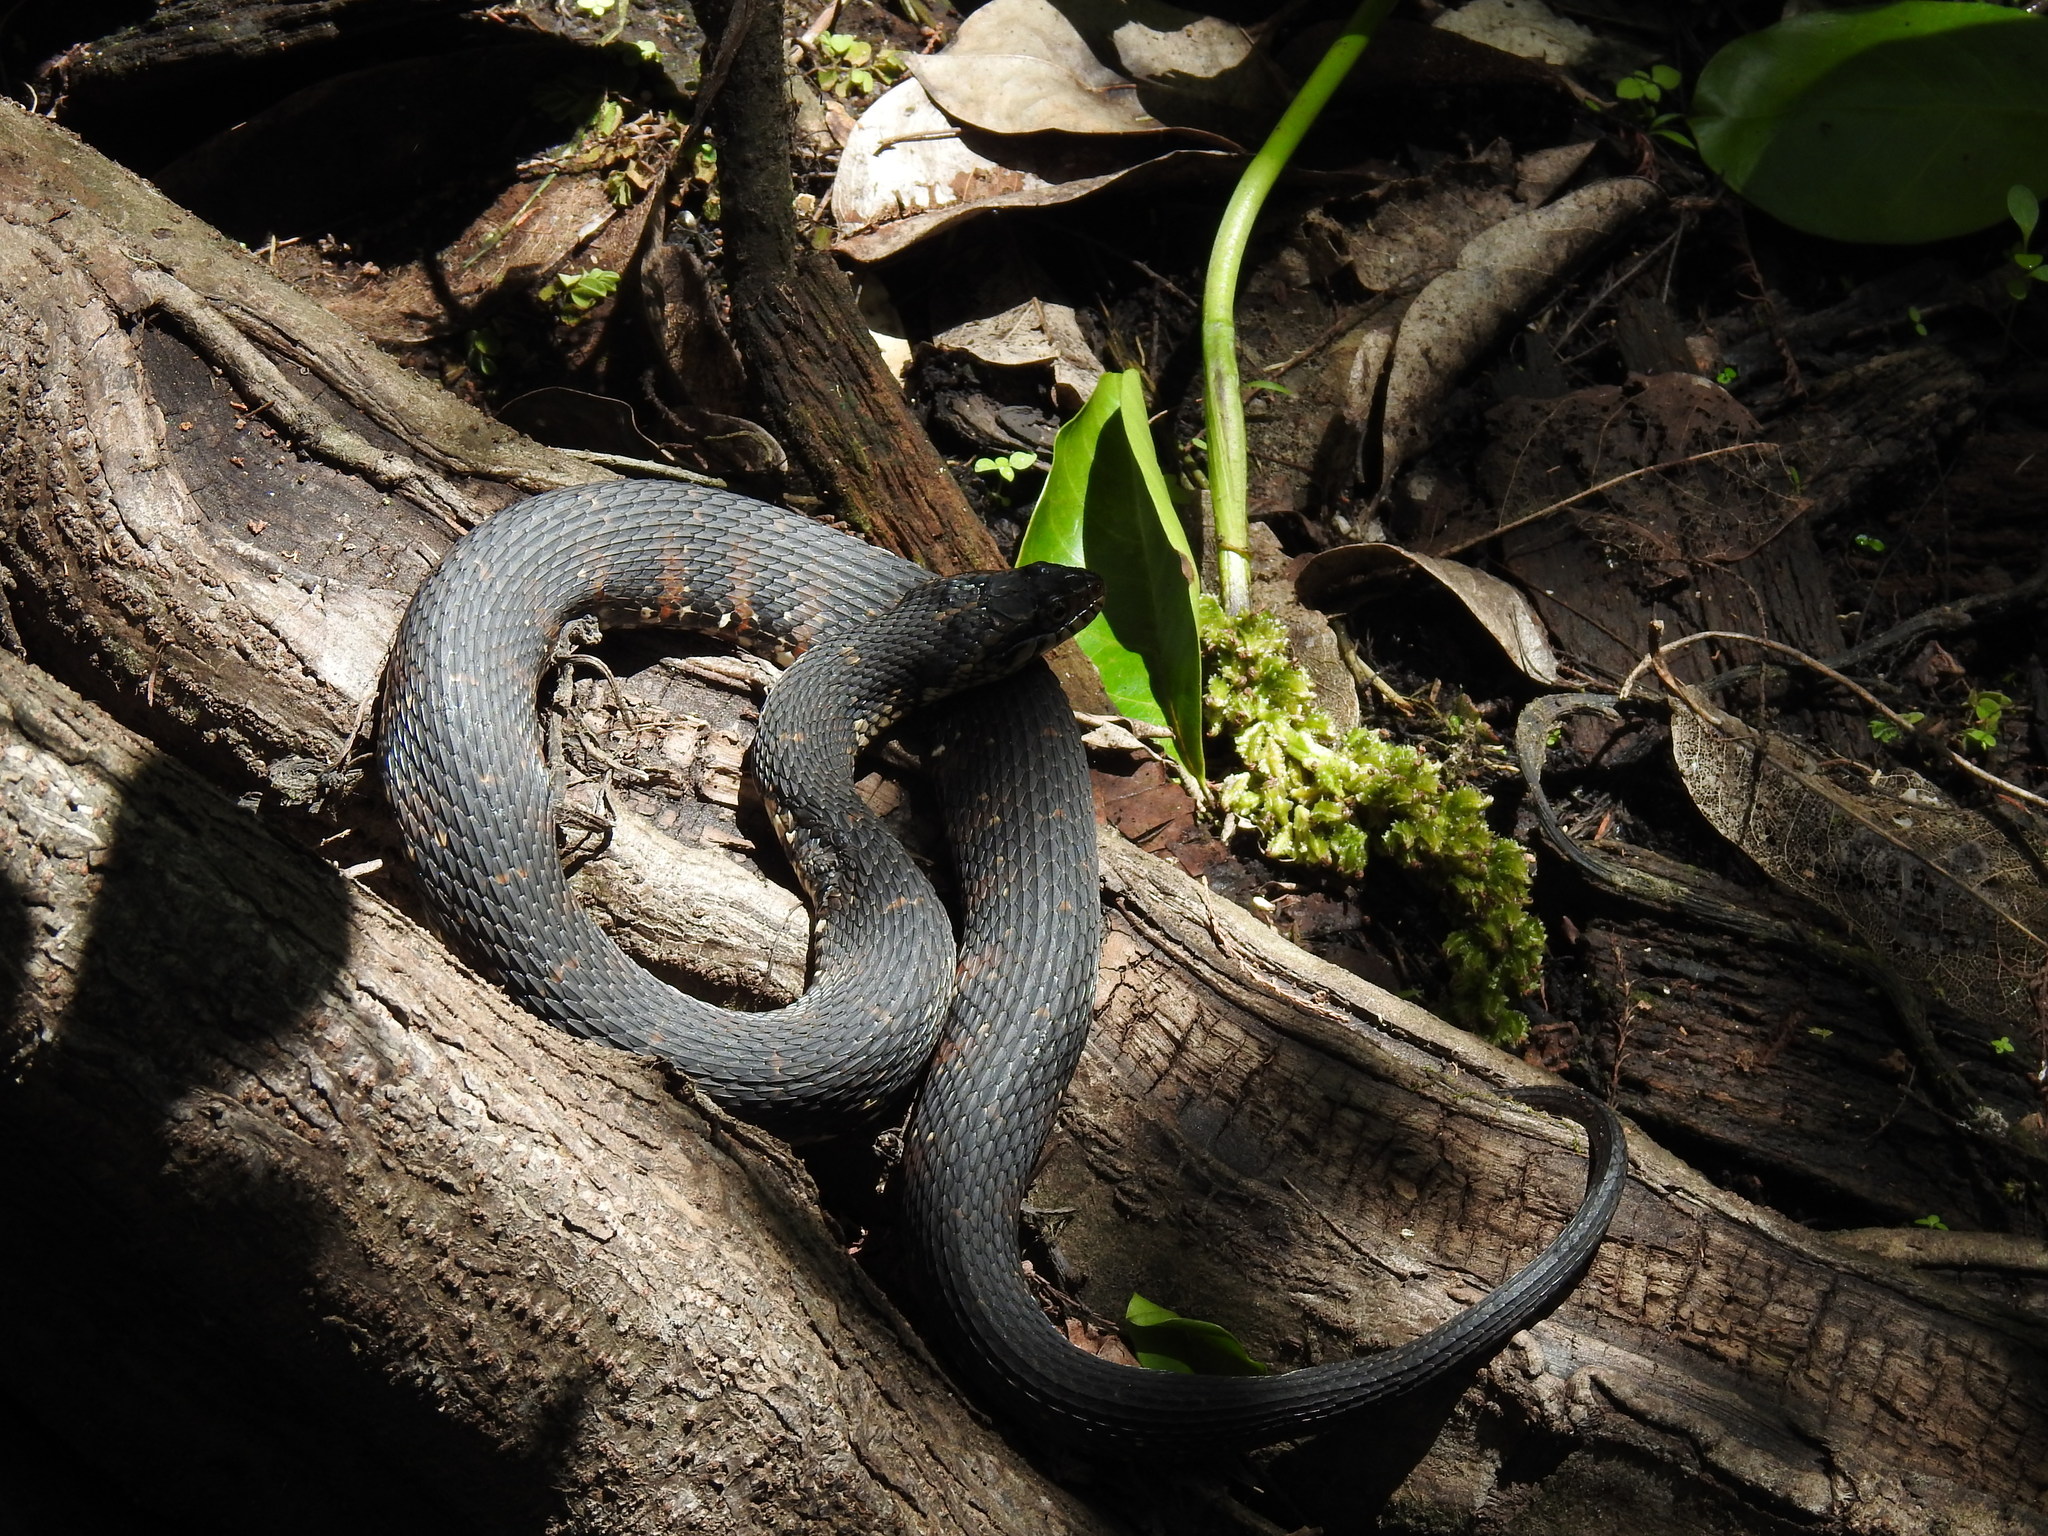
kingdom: Animalia
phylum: Chordata
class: Squamata
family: Colubridae
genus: Nerodia
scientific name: Nerodia fasciata
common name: Southern water snake
